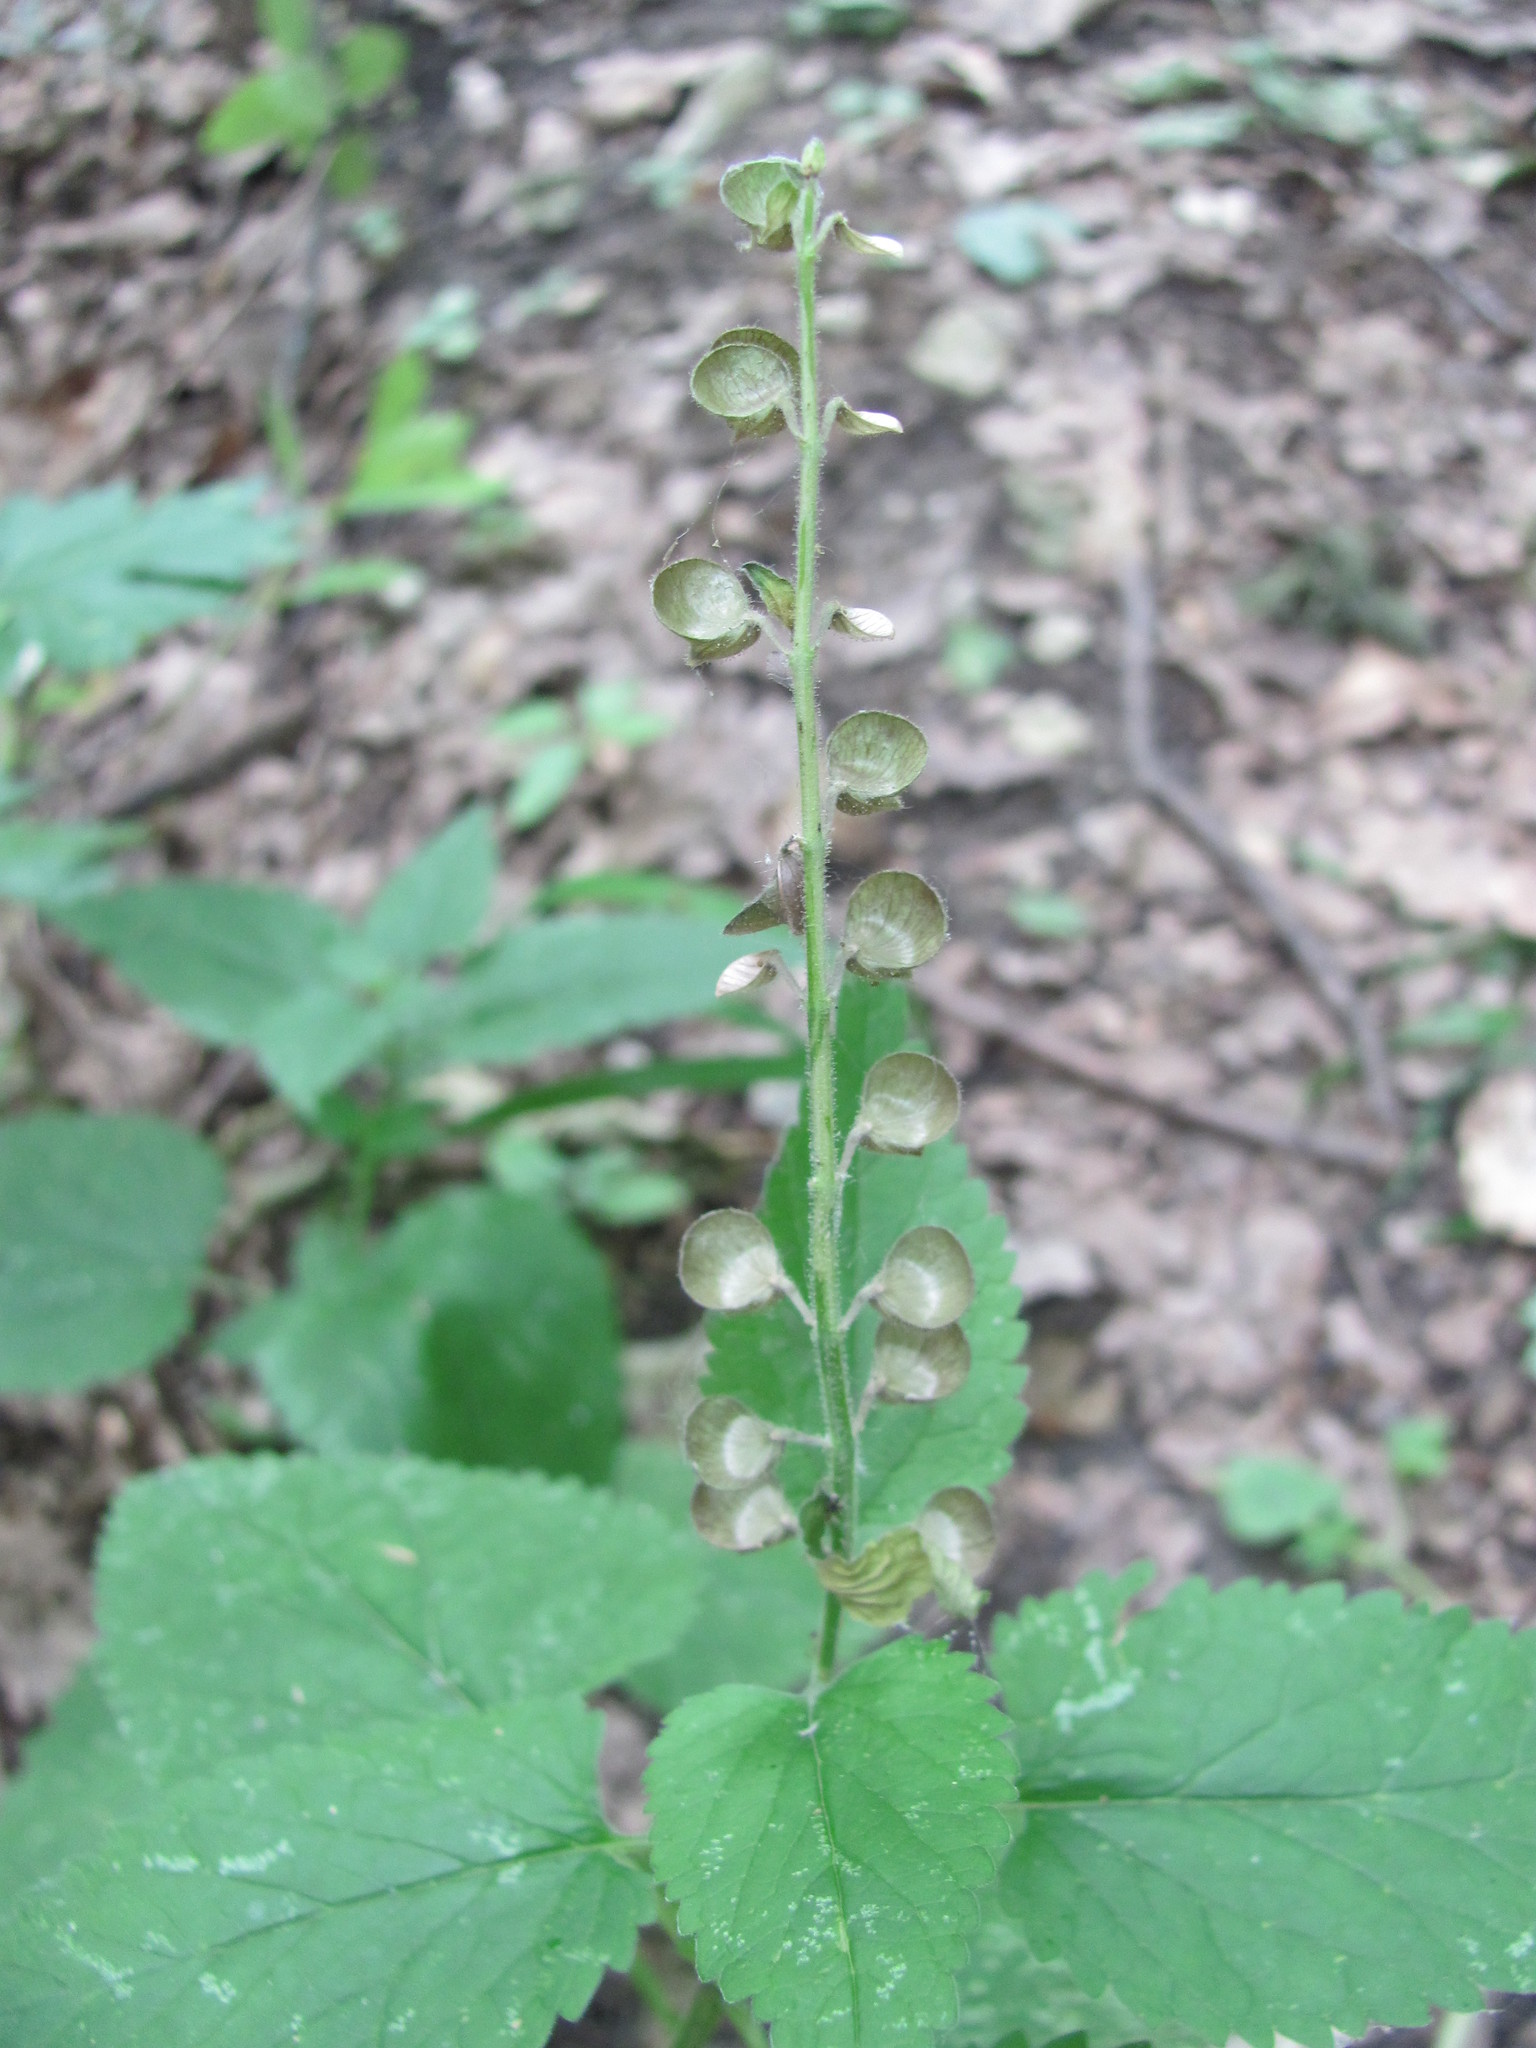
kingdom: Plantae
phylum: Tracheophyta
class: Magnoliopsida
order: Lamiales
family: Lamiaceae
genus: Scutellaria
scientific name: Scutellaria altissima
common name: Somerset skullcap
